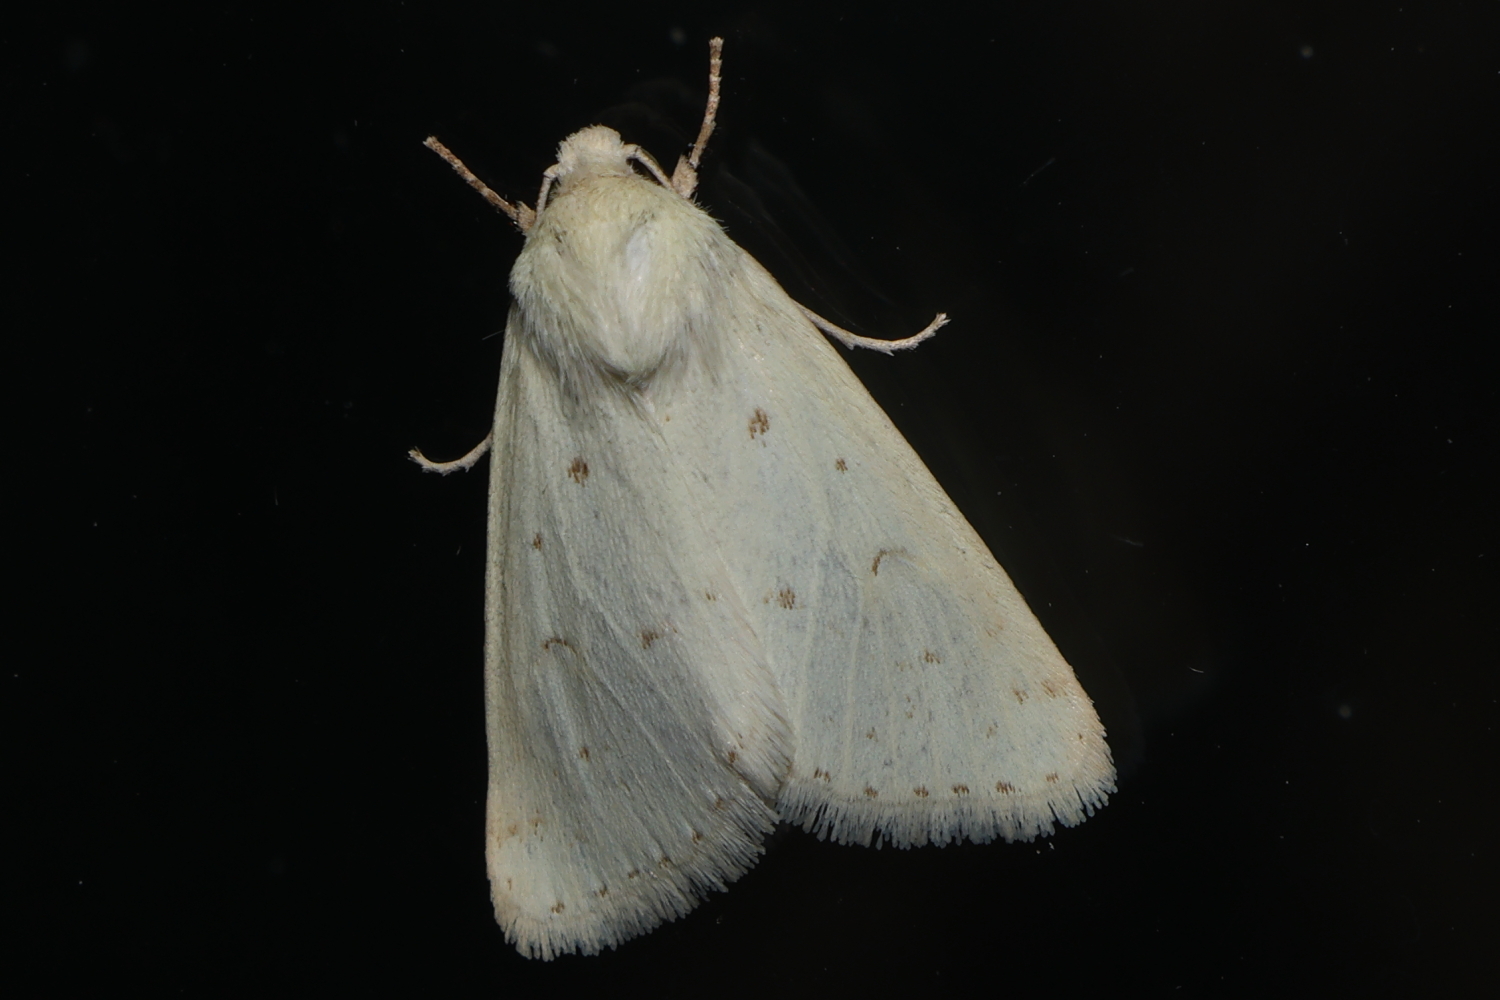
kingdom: Animalia
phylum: Arthropoda
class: Insecta
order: Lepidoptera
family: Noctuidae
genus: Schinia
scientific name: Schinia luxa
